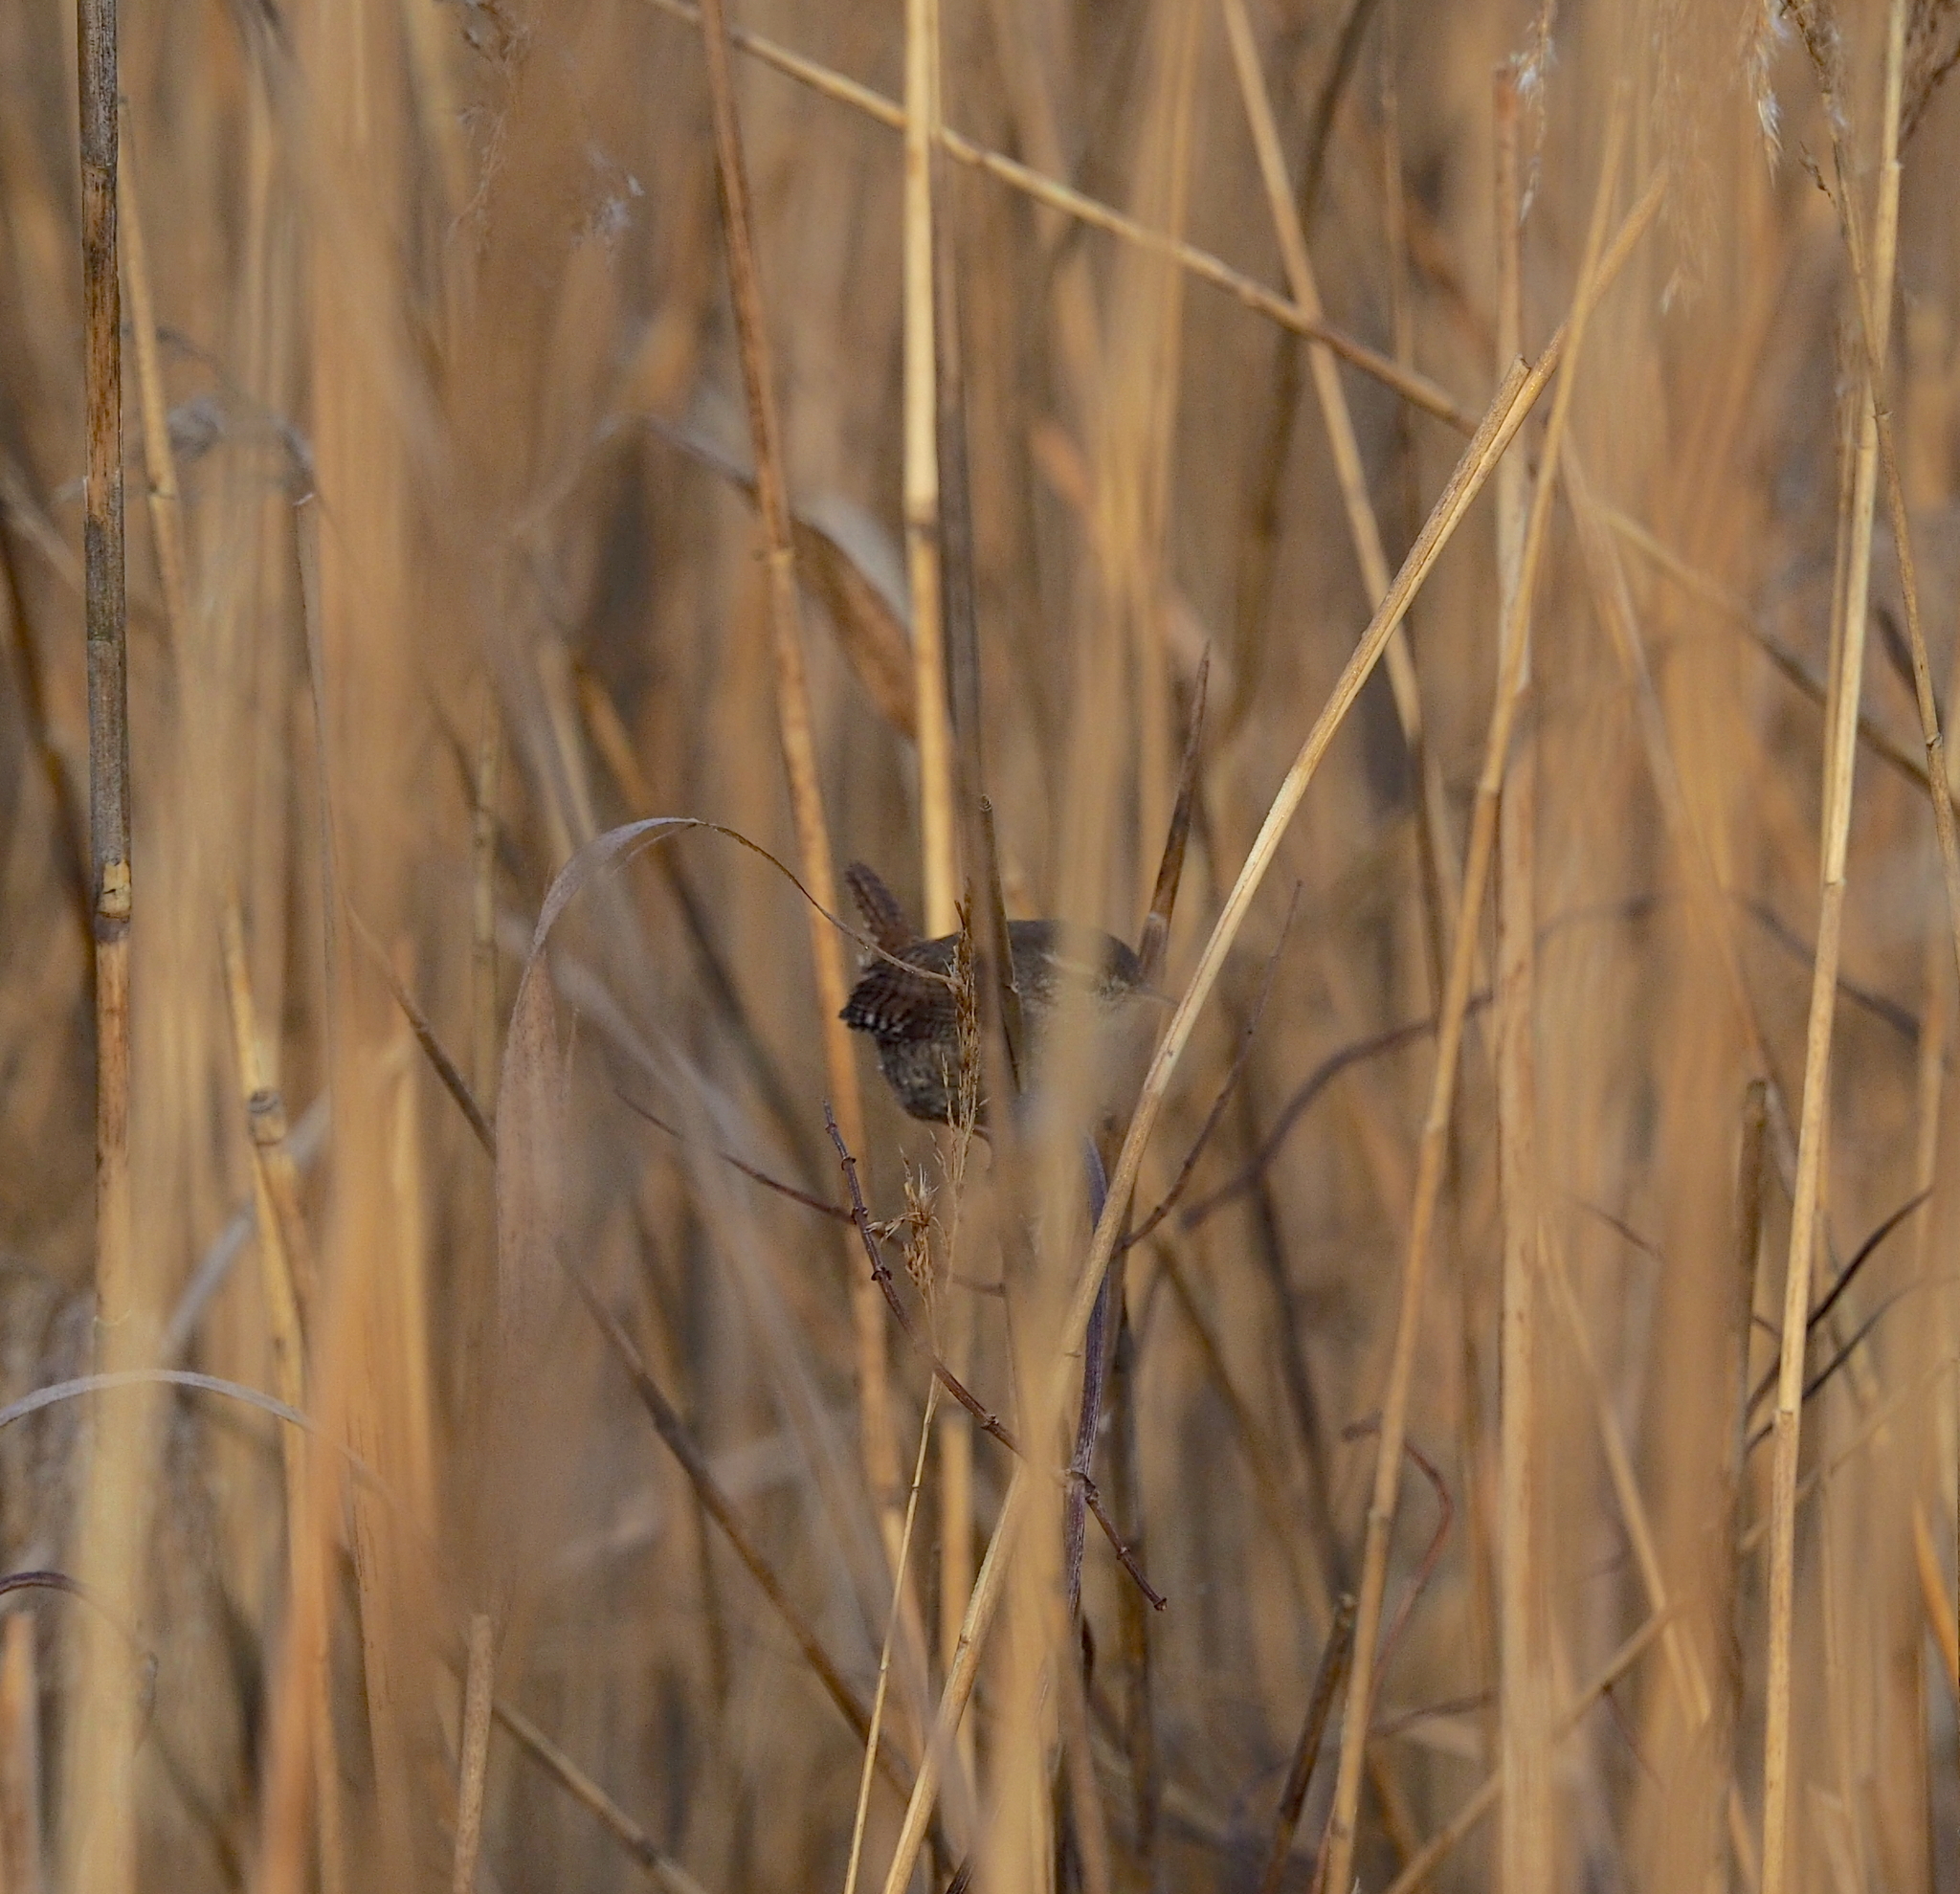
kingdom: Animalia
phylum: Chordata
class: Aves
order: Passeriformes
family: Troglodytidae
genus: Troglodytes
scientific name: Troglodytes troglodytes
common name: Eurasian wren
